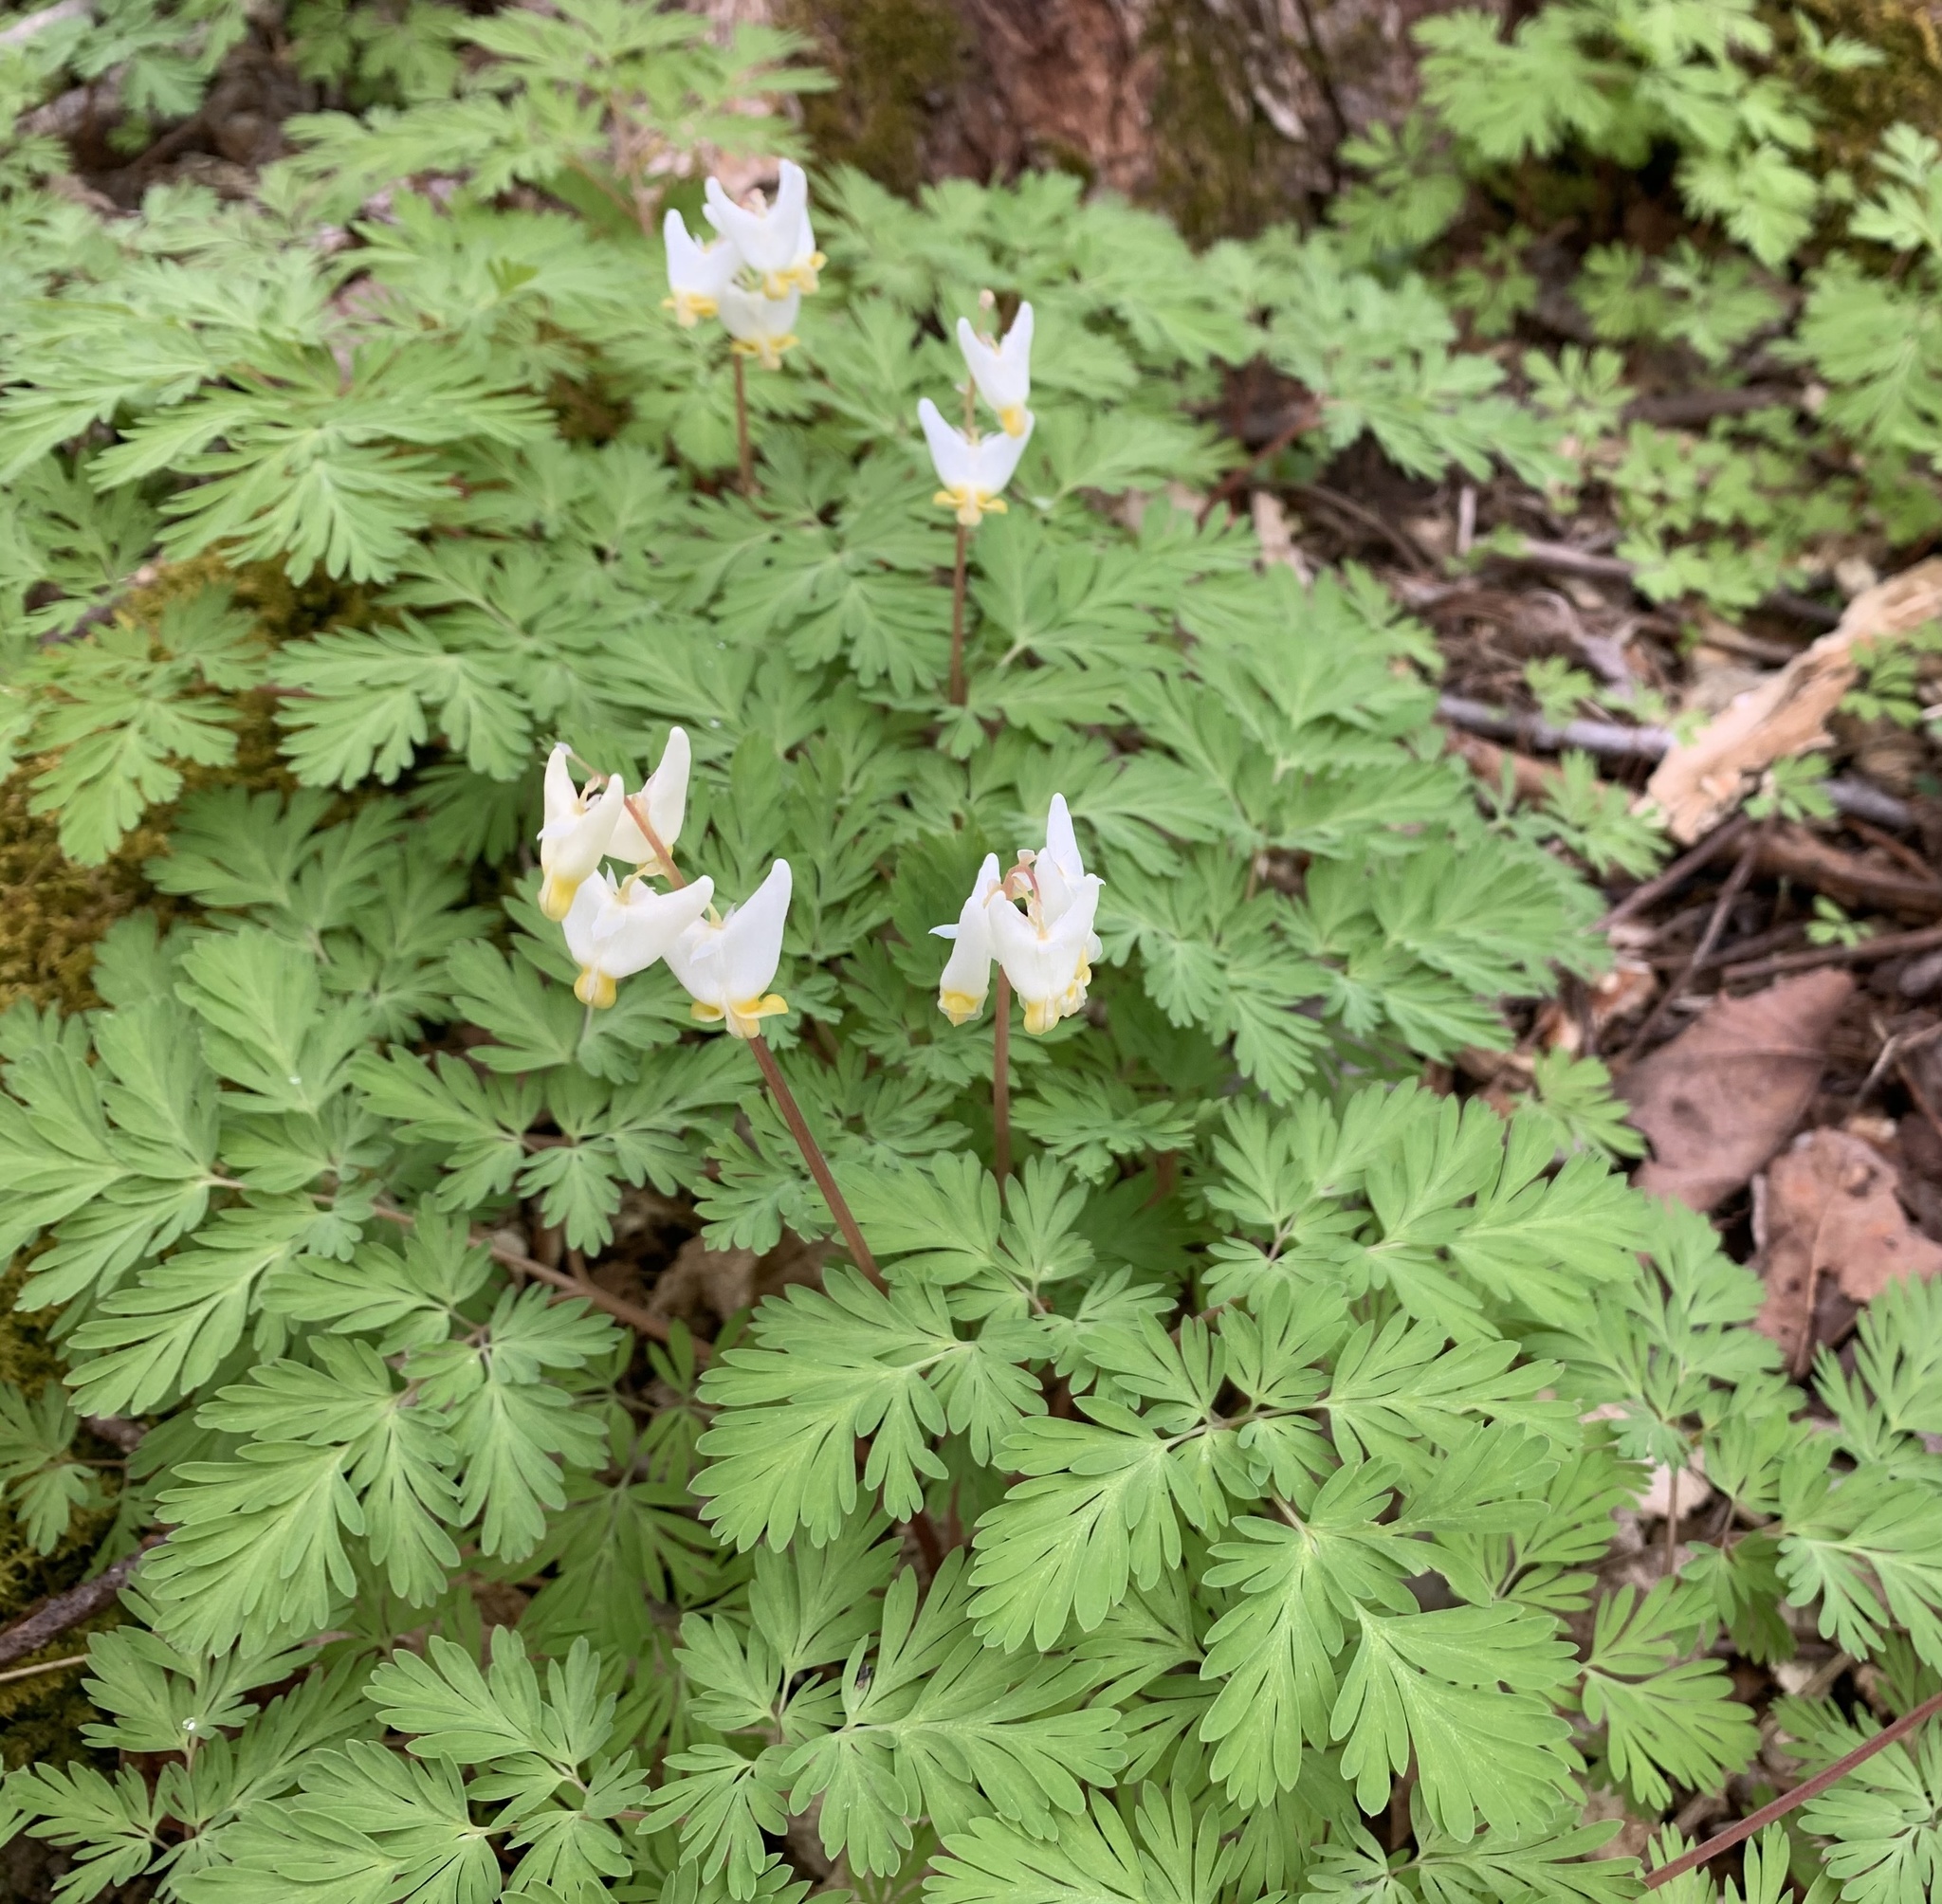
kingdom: Plantae
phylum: Tracheophyta
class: Magnoliopsida
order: Ranunculales
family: Papaveraceae
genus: Dicentra
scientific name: Dicentra cucullaria
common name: Dutchman's breeches
